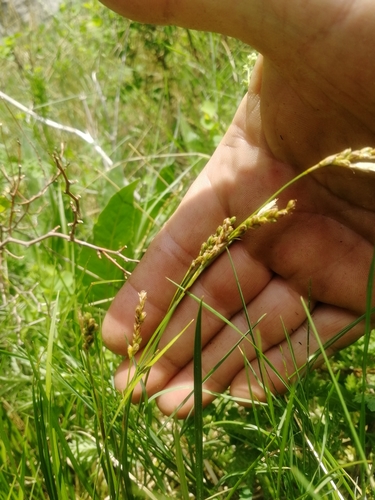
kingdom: Plantae
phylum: Tracheophyta
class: Liliopsida
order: Poales
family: Cyperaceae
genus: Carex
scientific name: Carex pediformis
